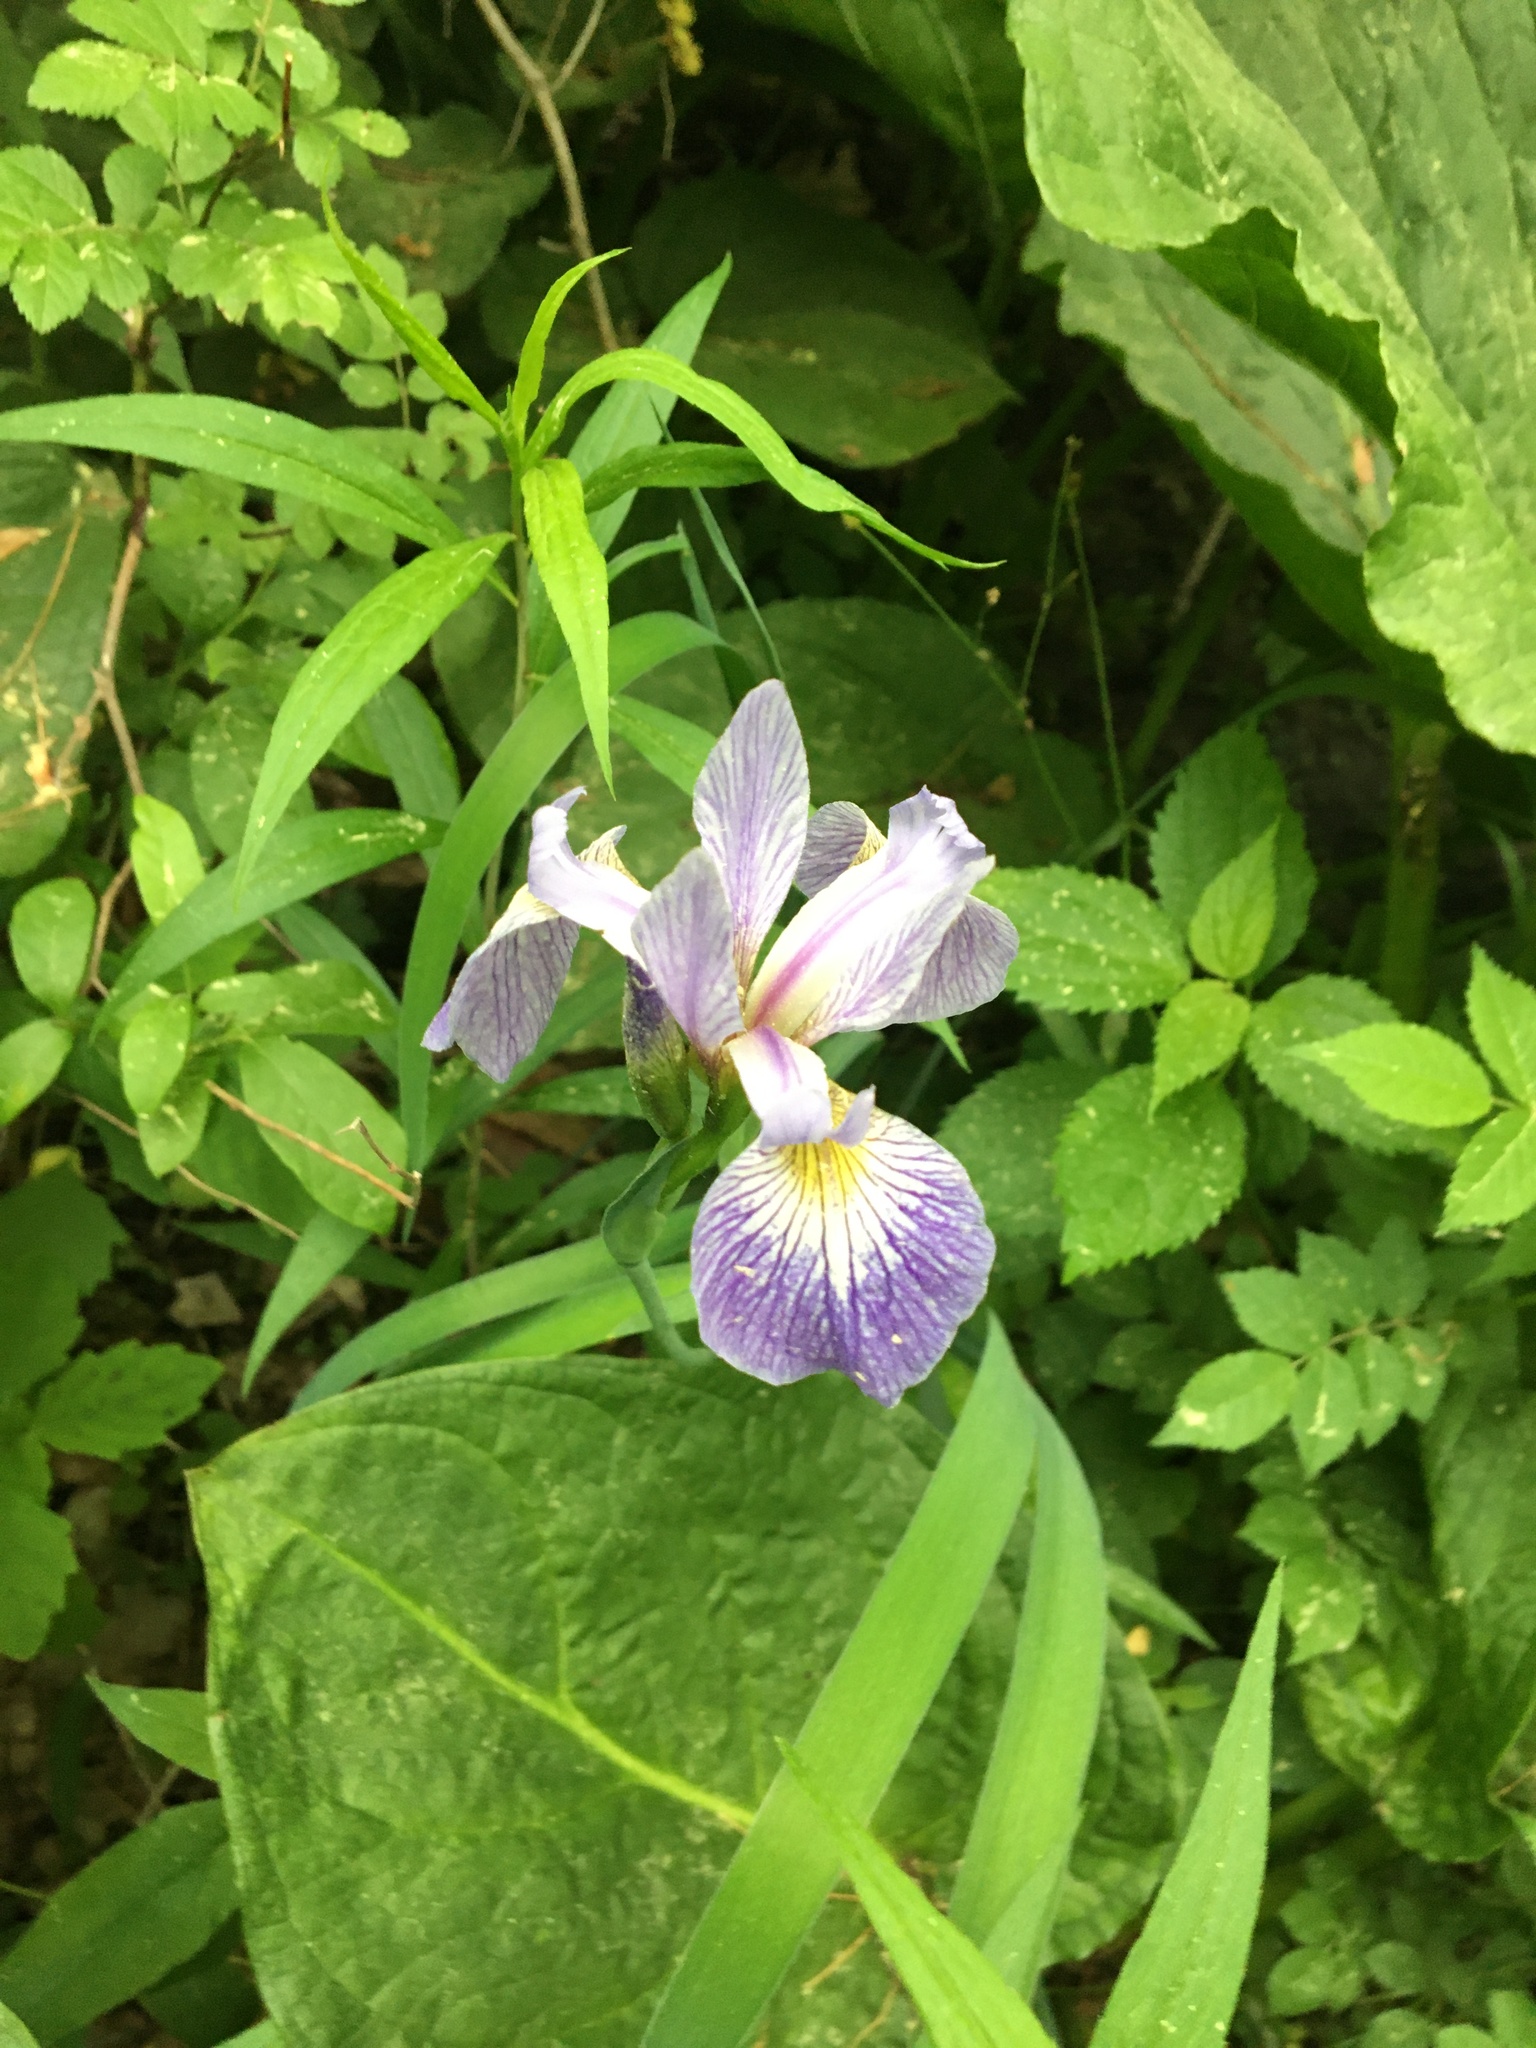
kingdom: Plantae
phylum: Tracheophyta
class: Liliopsida
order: Asparagales
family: Iridaceae
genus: Iris
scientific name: Iris versicolor
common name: Purple iris
